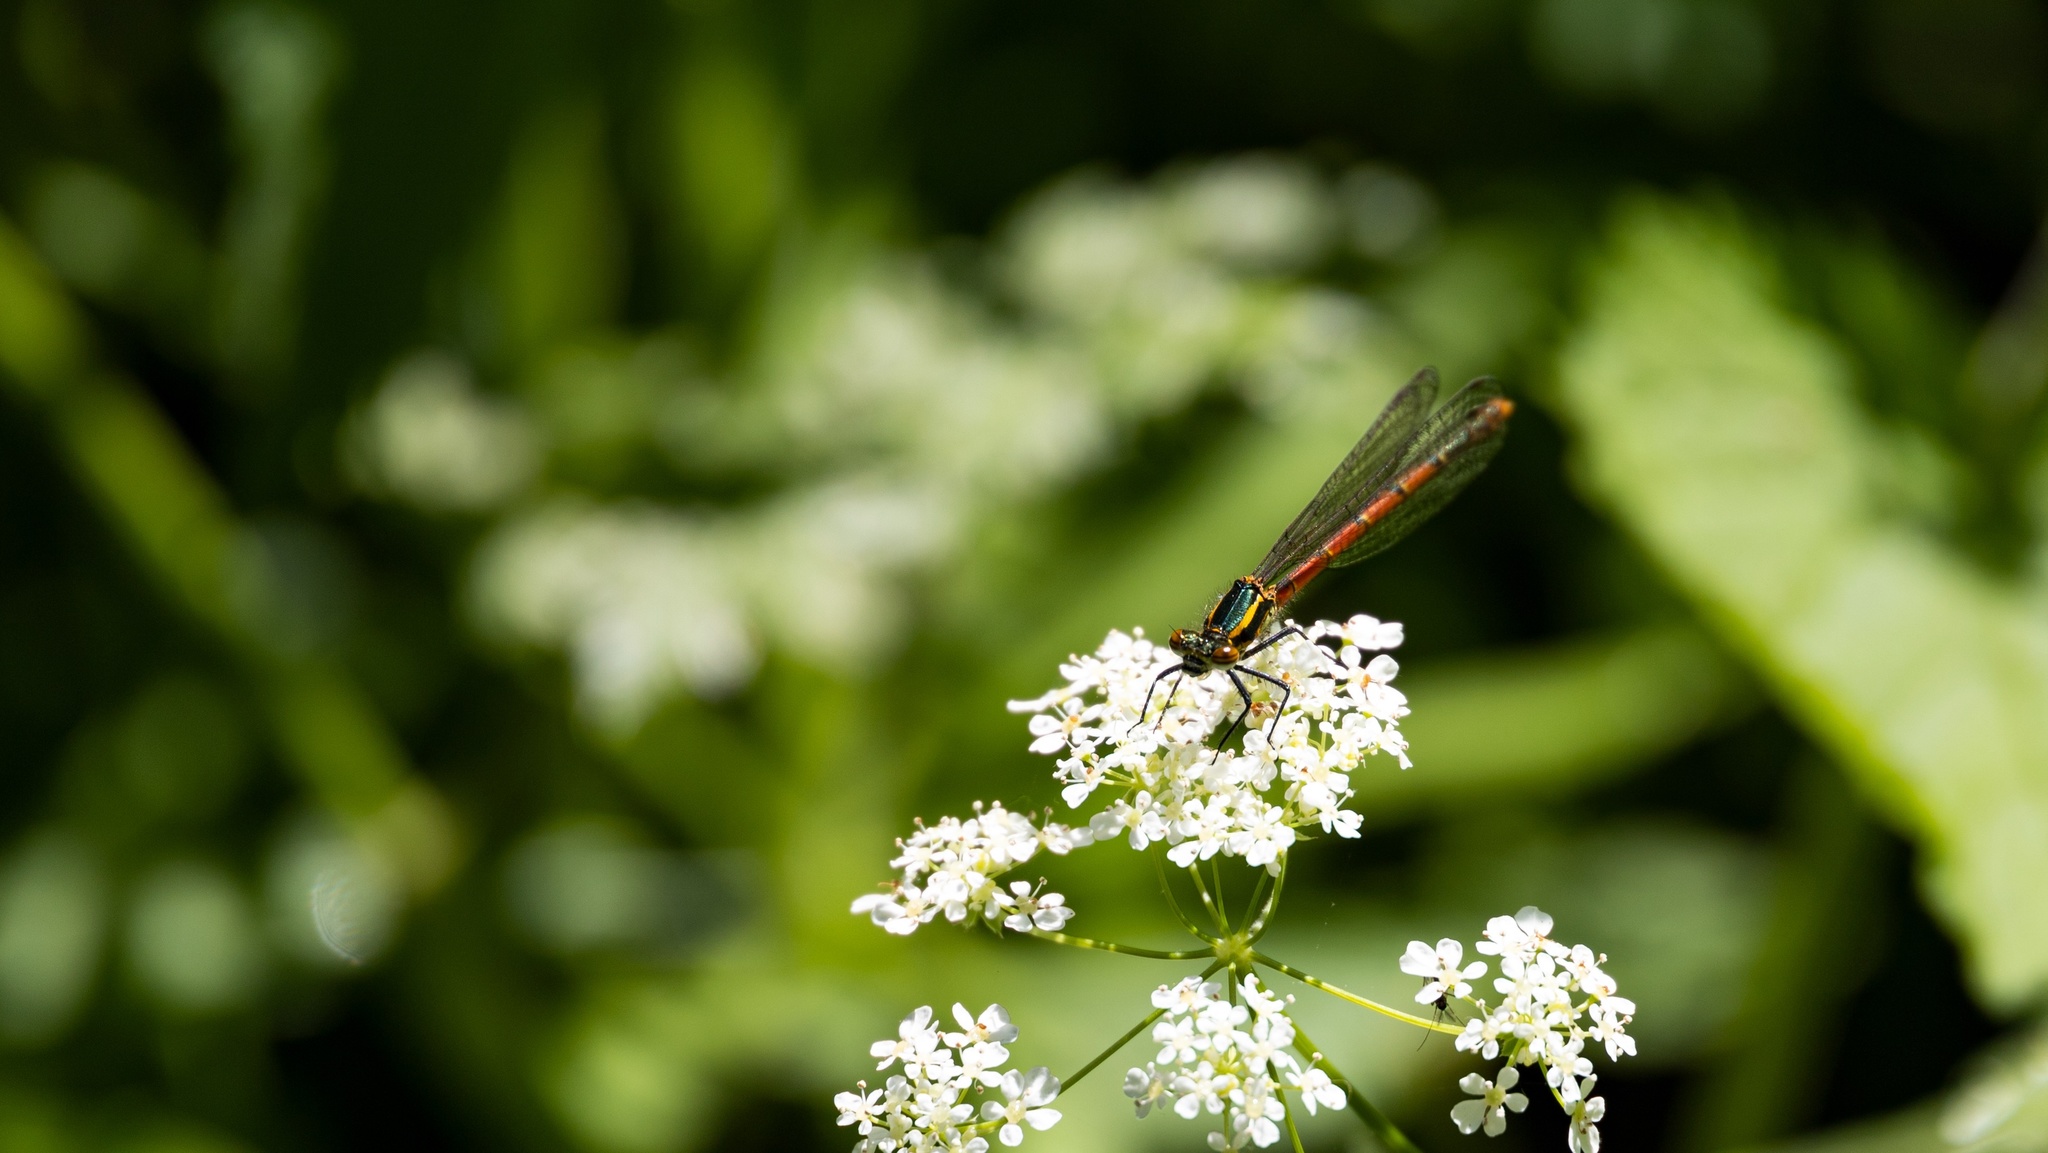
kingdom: Animalia
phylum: Arthropoda
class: Insecta
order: Odonata
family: Coenagrionidae
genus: Pyrrhosoma
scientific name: Pyrrhosoma nymphula
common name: Large red damsel
